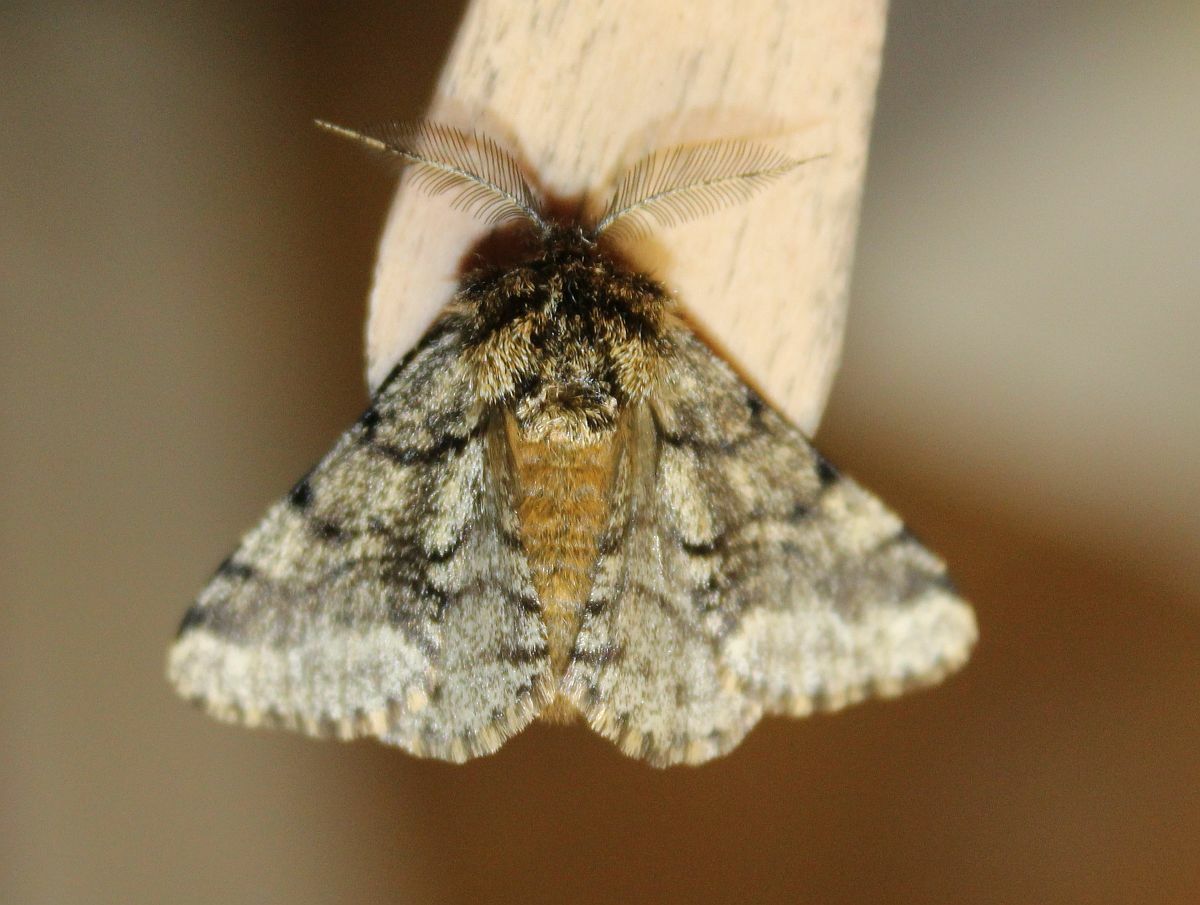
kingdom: Animalia
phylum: Arthropoda
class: Insecta
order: Lepidoptera
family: Geometridae
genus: Lycia
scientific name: Lycia hirtaria
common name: Brindled beauty
